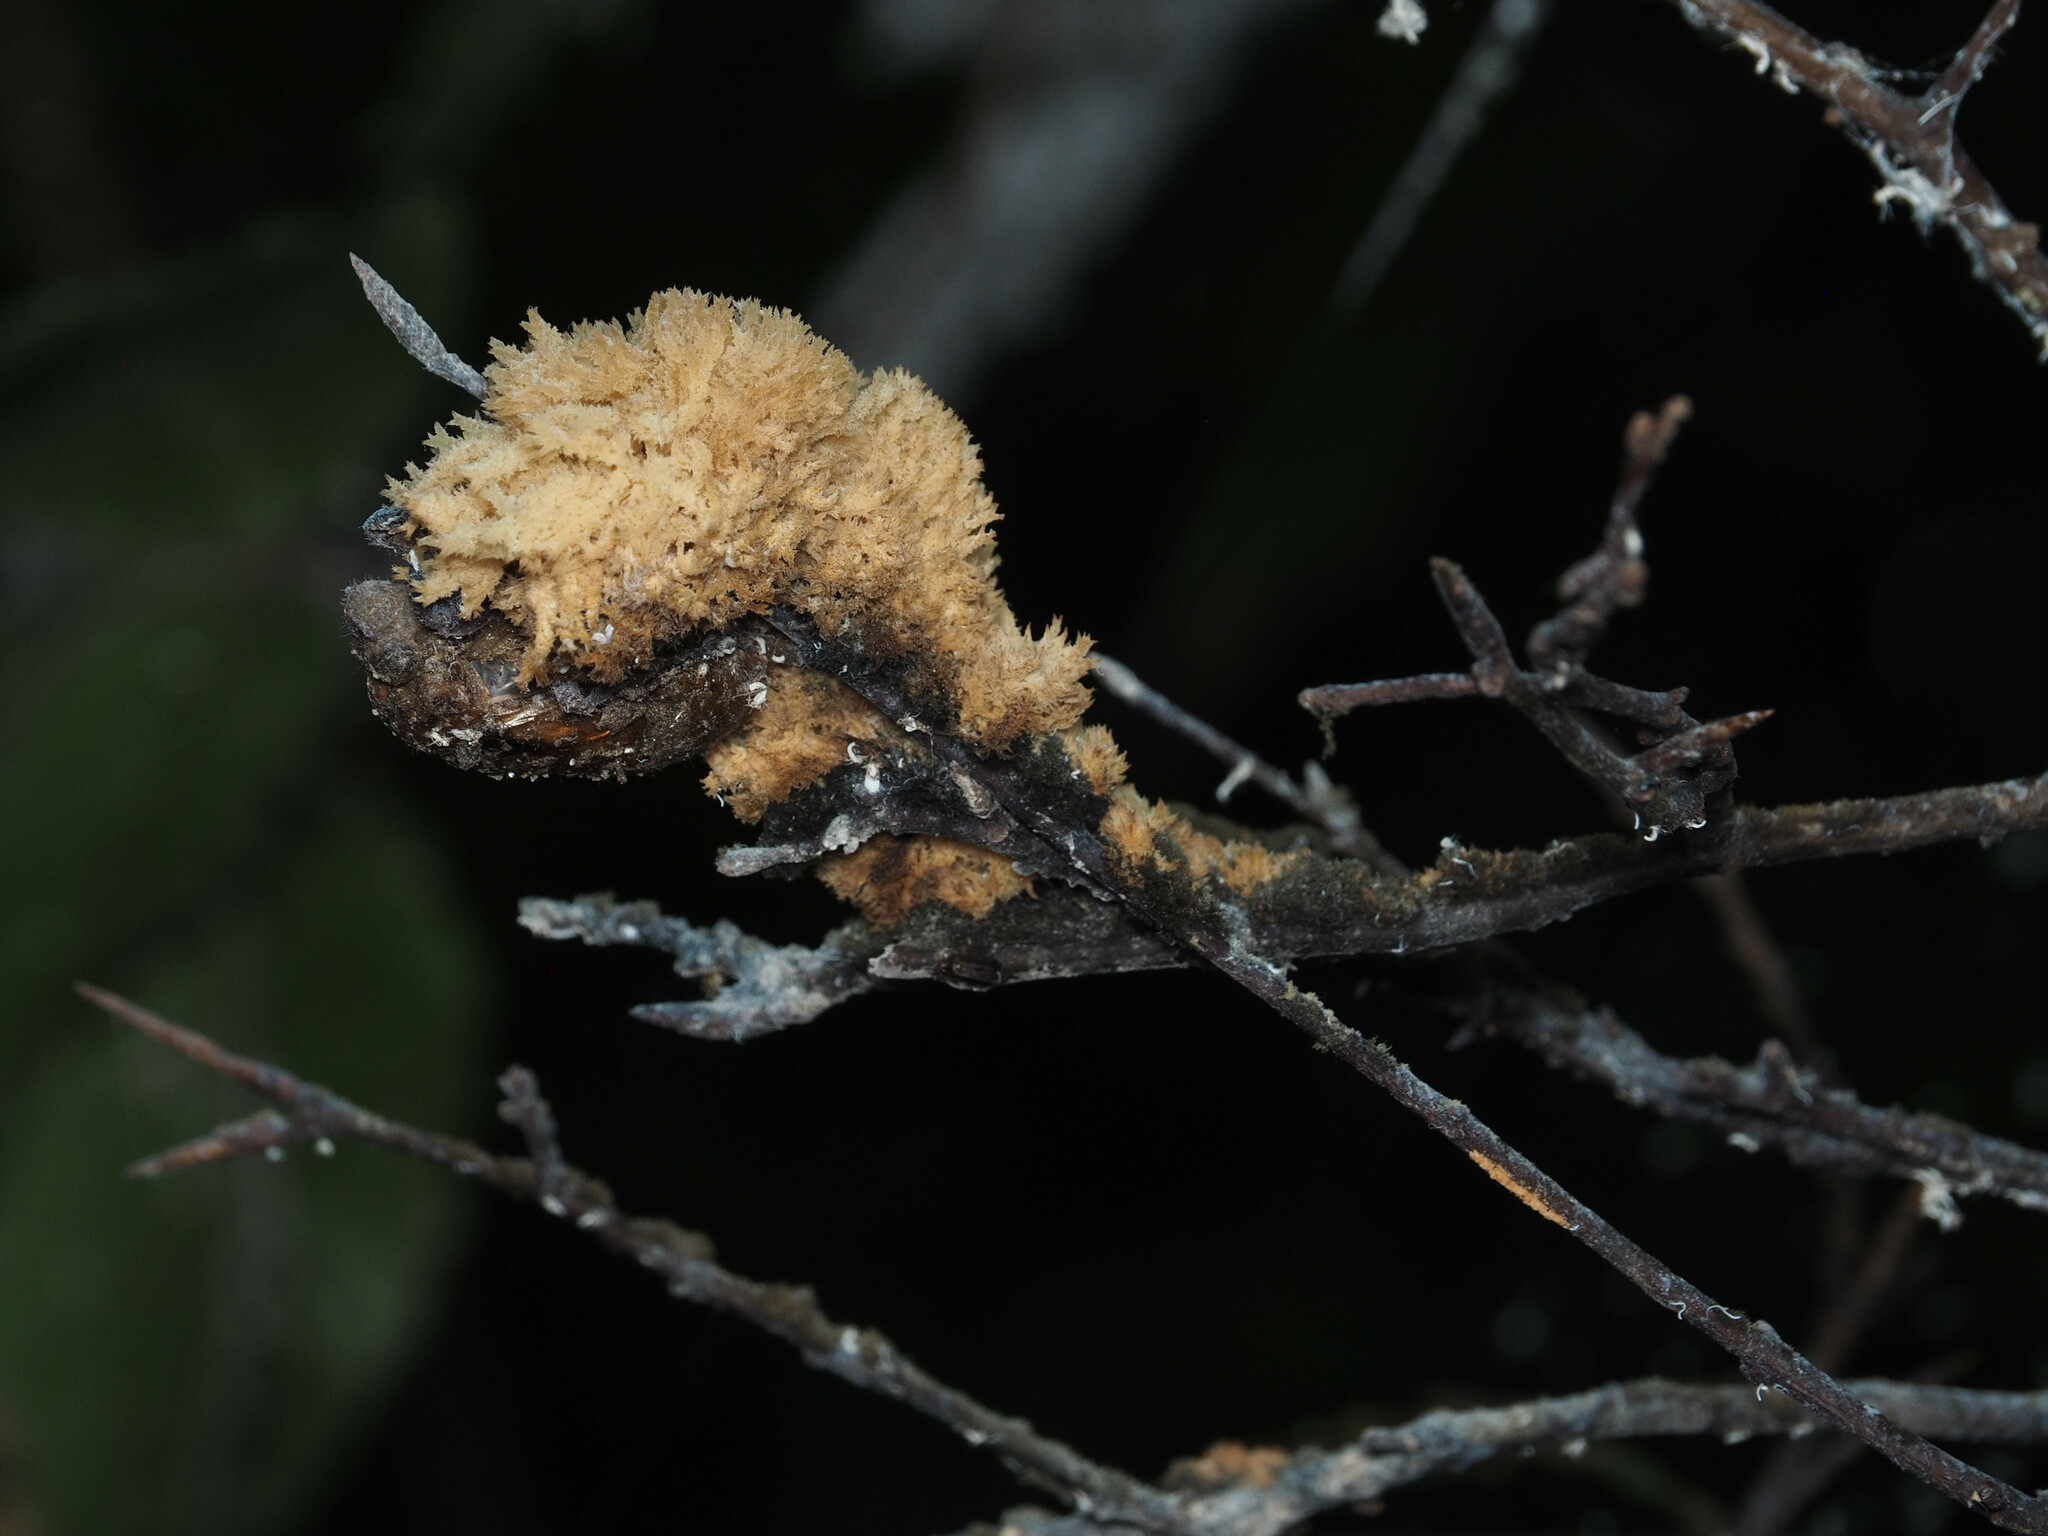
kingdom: Fungi
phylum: Ascomycota
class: Dothideomycetes
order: Capnodiales
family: Capnodiaceae
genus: Scorias
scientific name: Scorias spongiosa
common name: Black sooty mold
